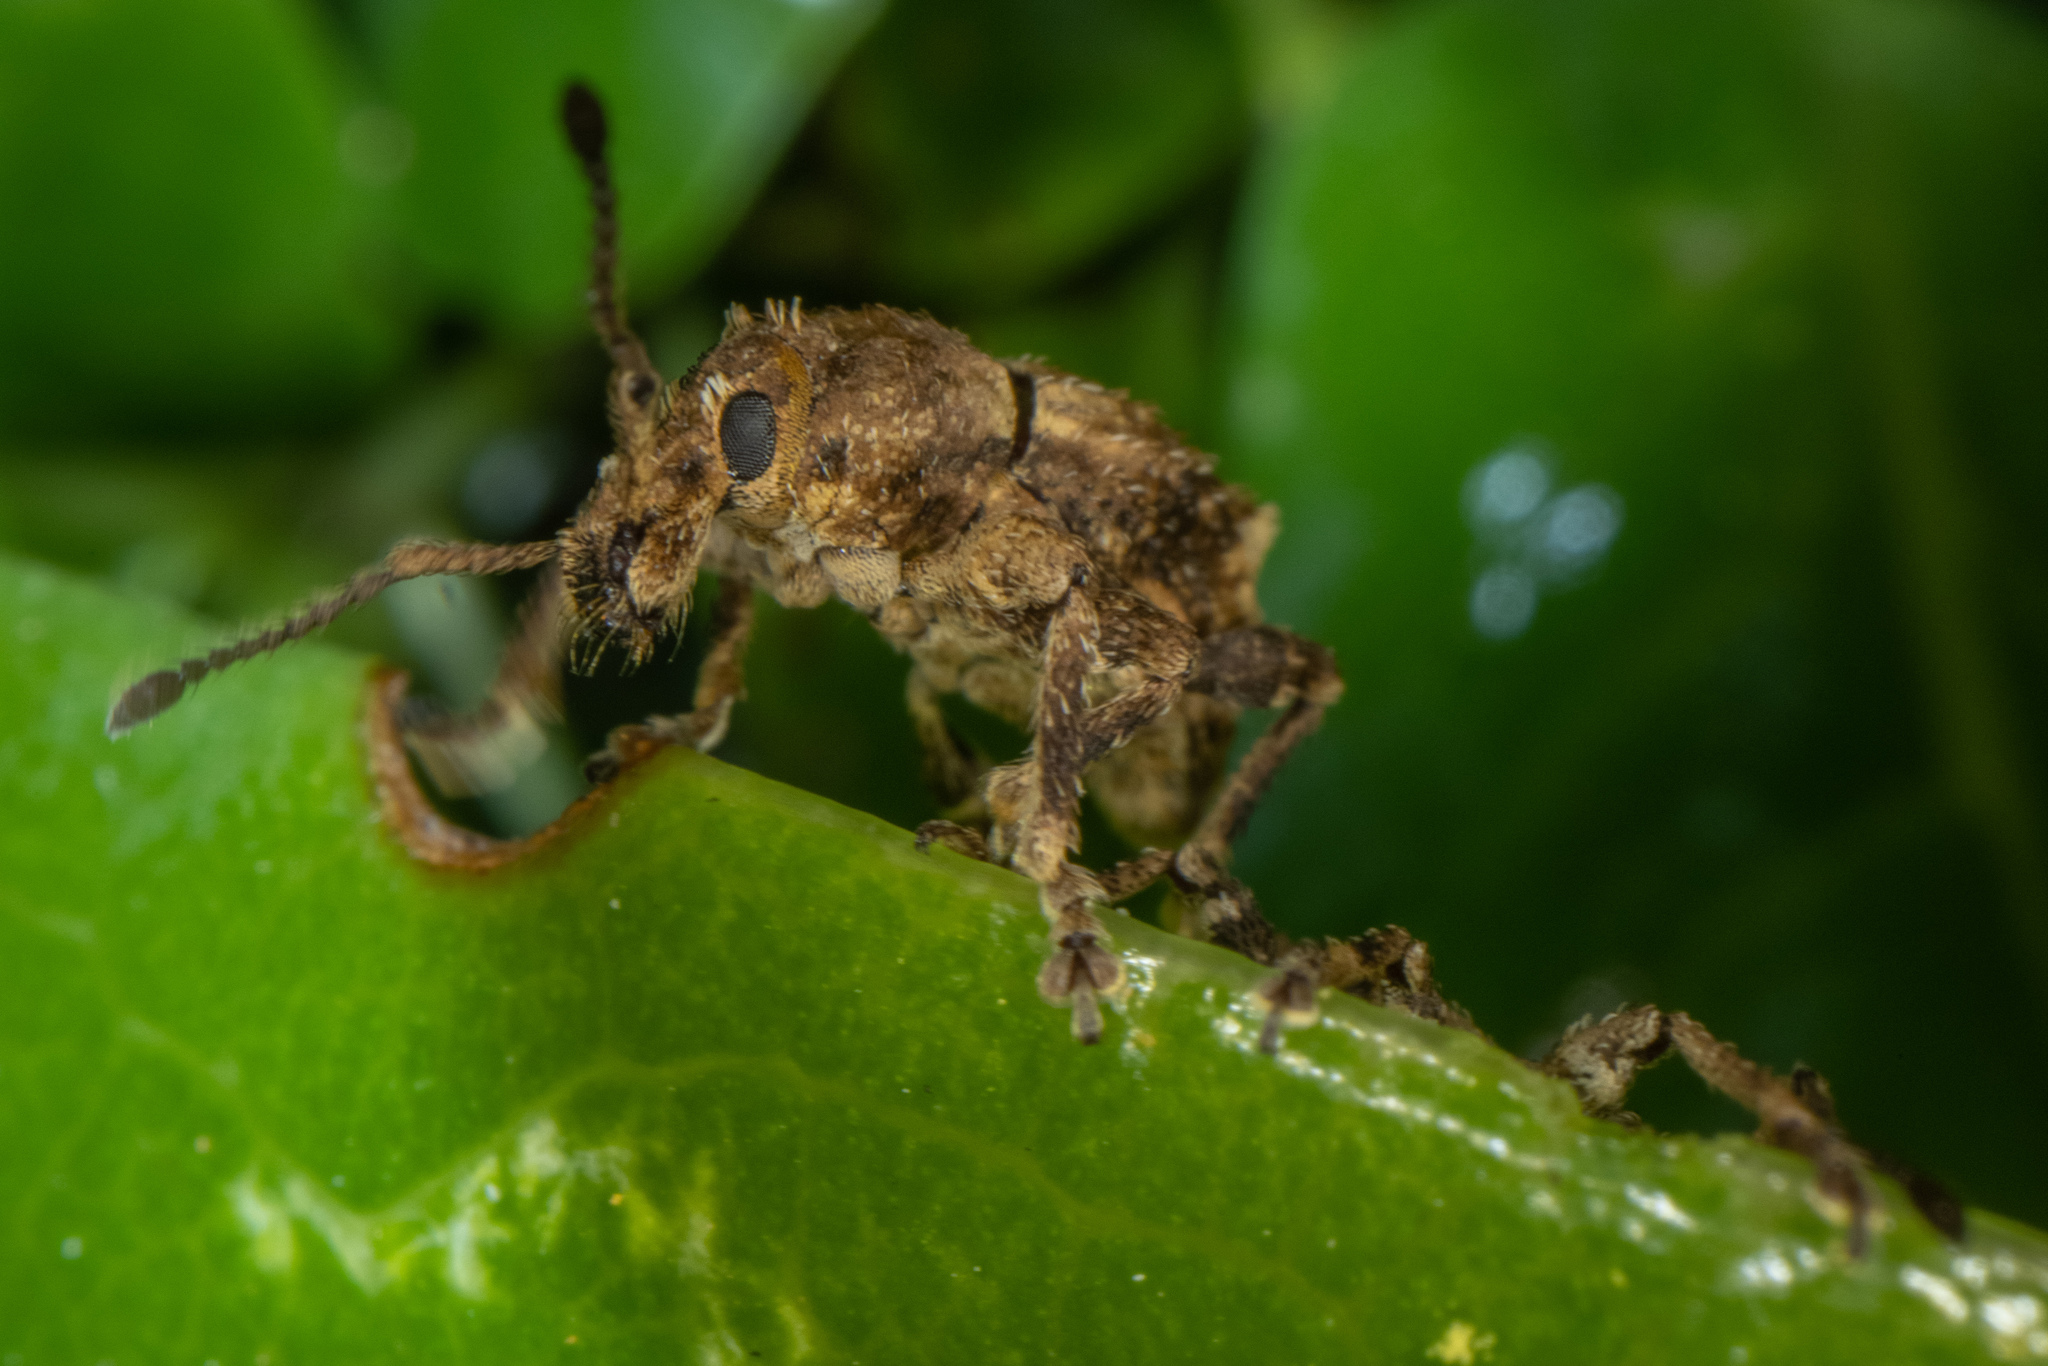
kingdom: Animalia
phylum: Arthropoda
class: Insecta
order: Coleoptera
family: Curculionidae
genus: Chalepistes
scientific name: Chalepistes costifer
